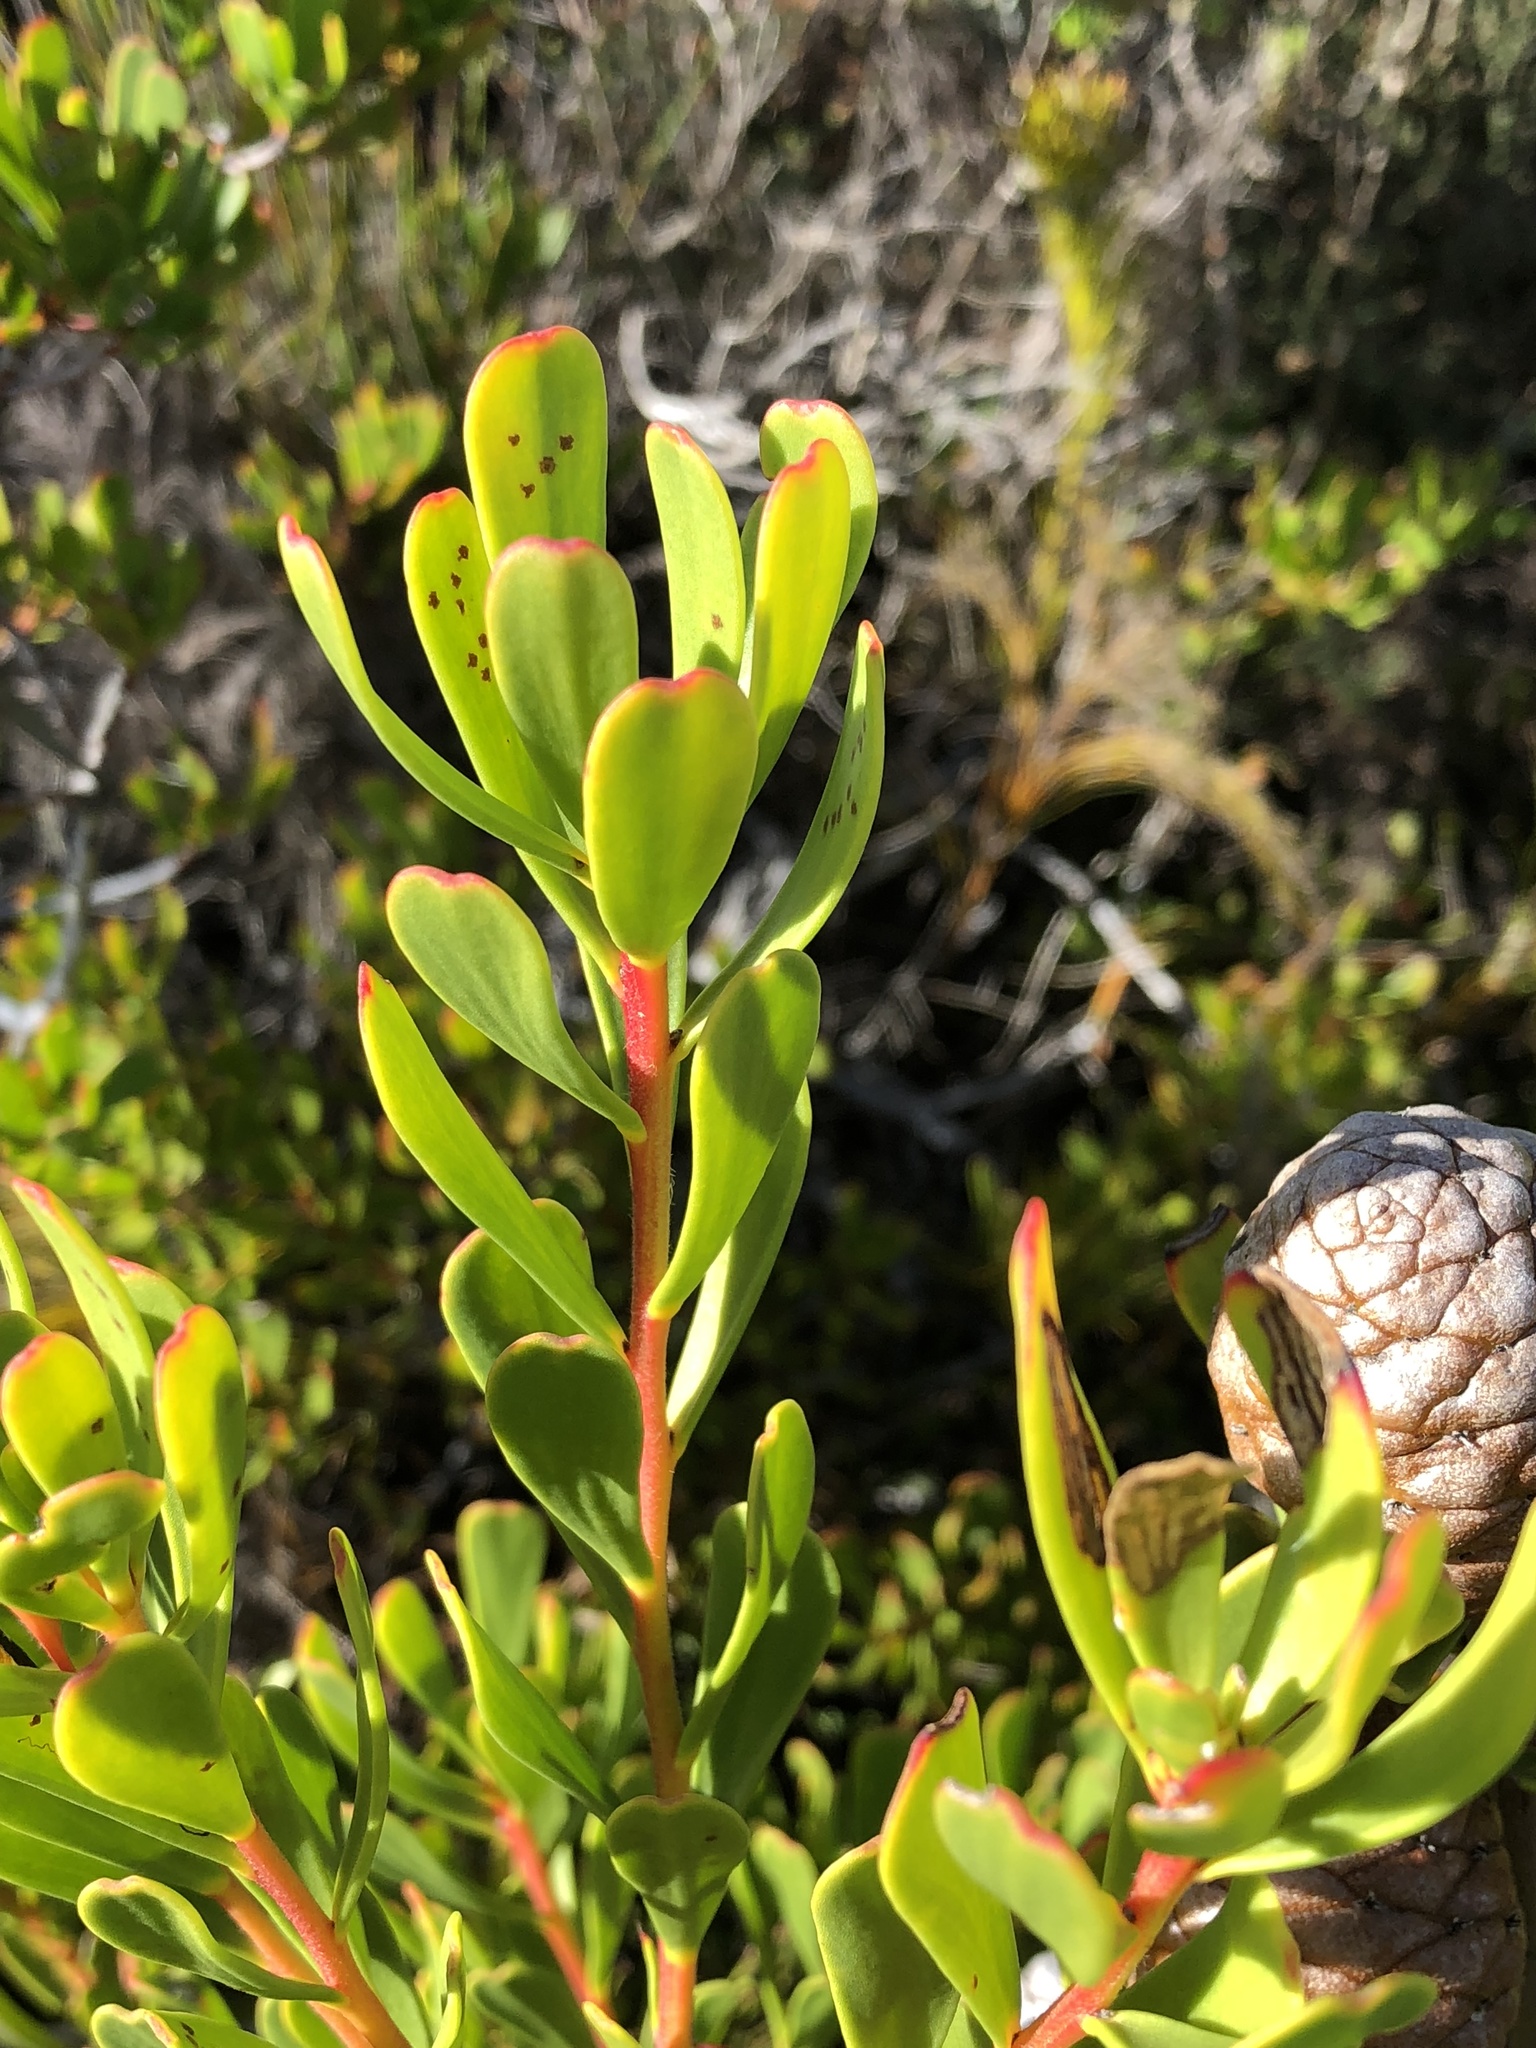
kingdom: Plantae
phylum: Tracheophyta
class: Magnoliopsida
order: Proteales
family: Proteaceae
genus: Leucadendron
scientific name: Leucadendron muirii
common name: Silver-ball conebush
